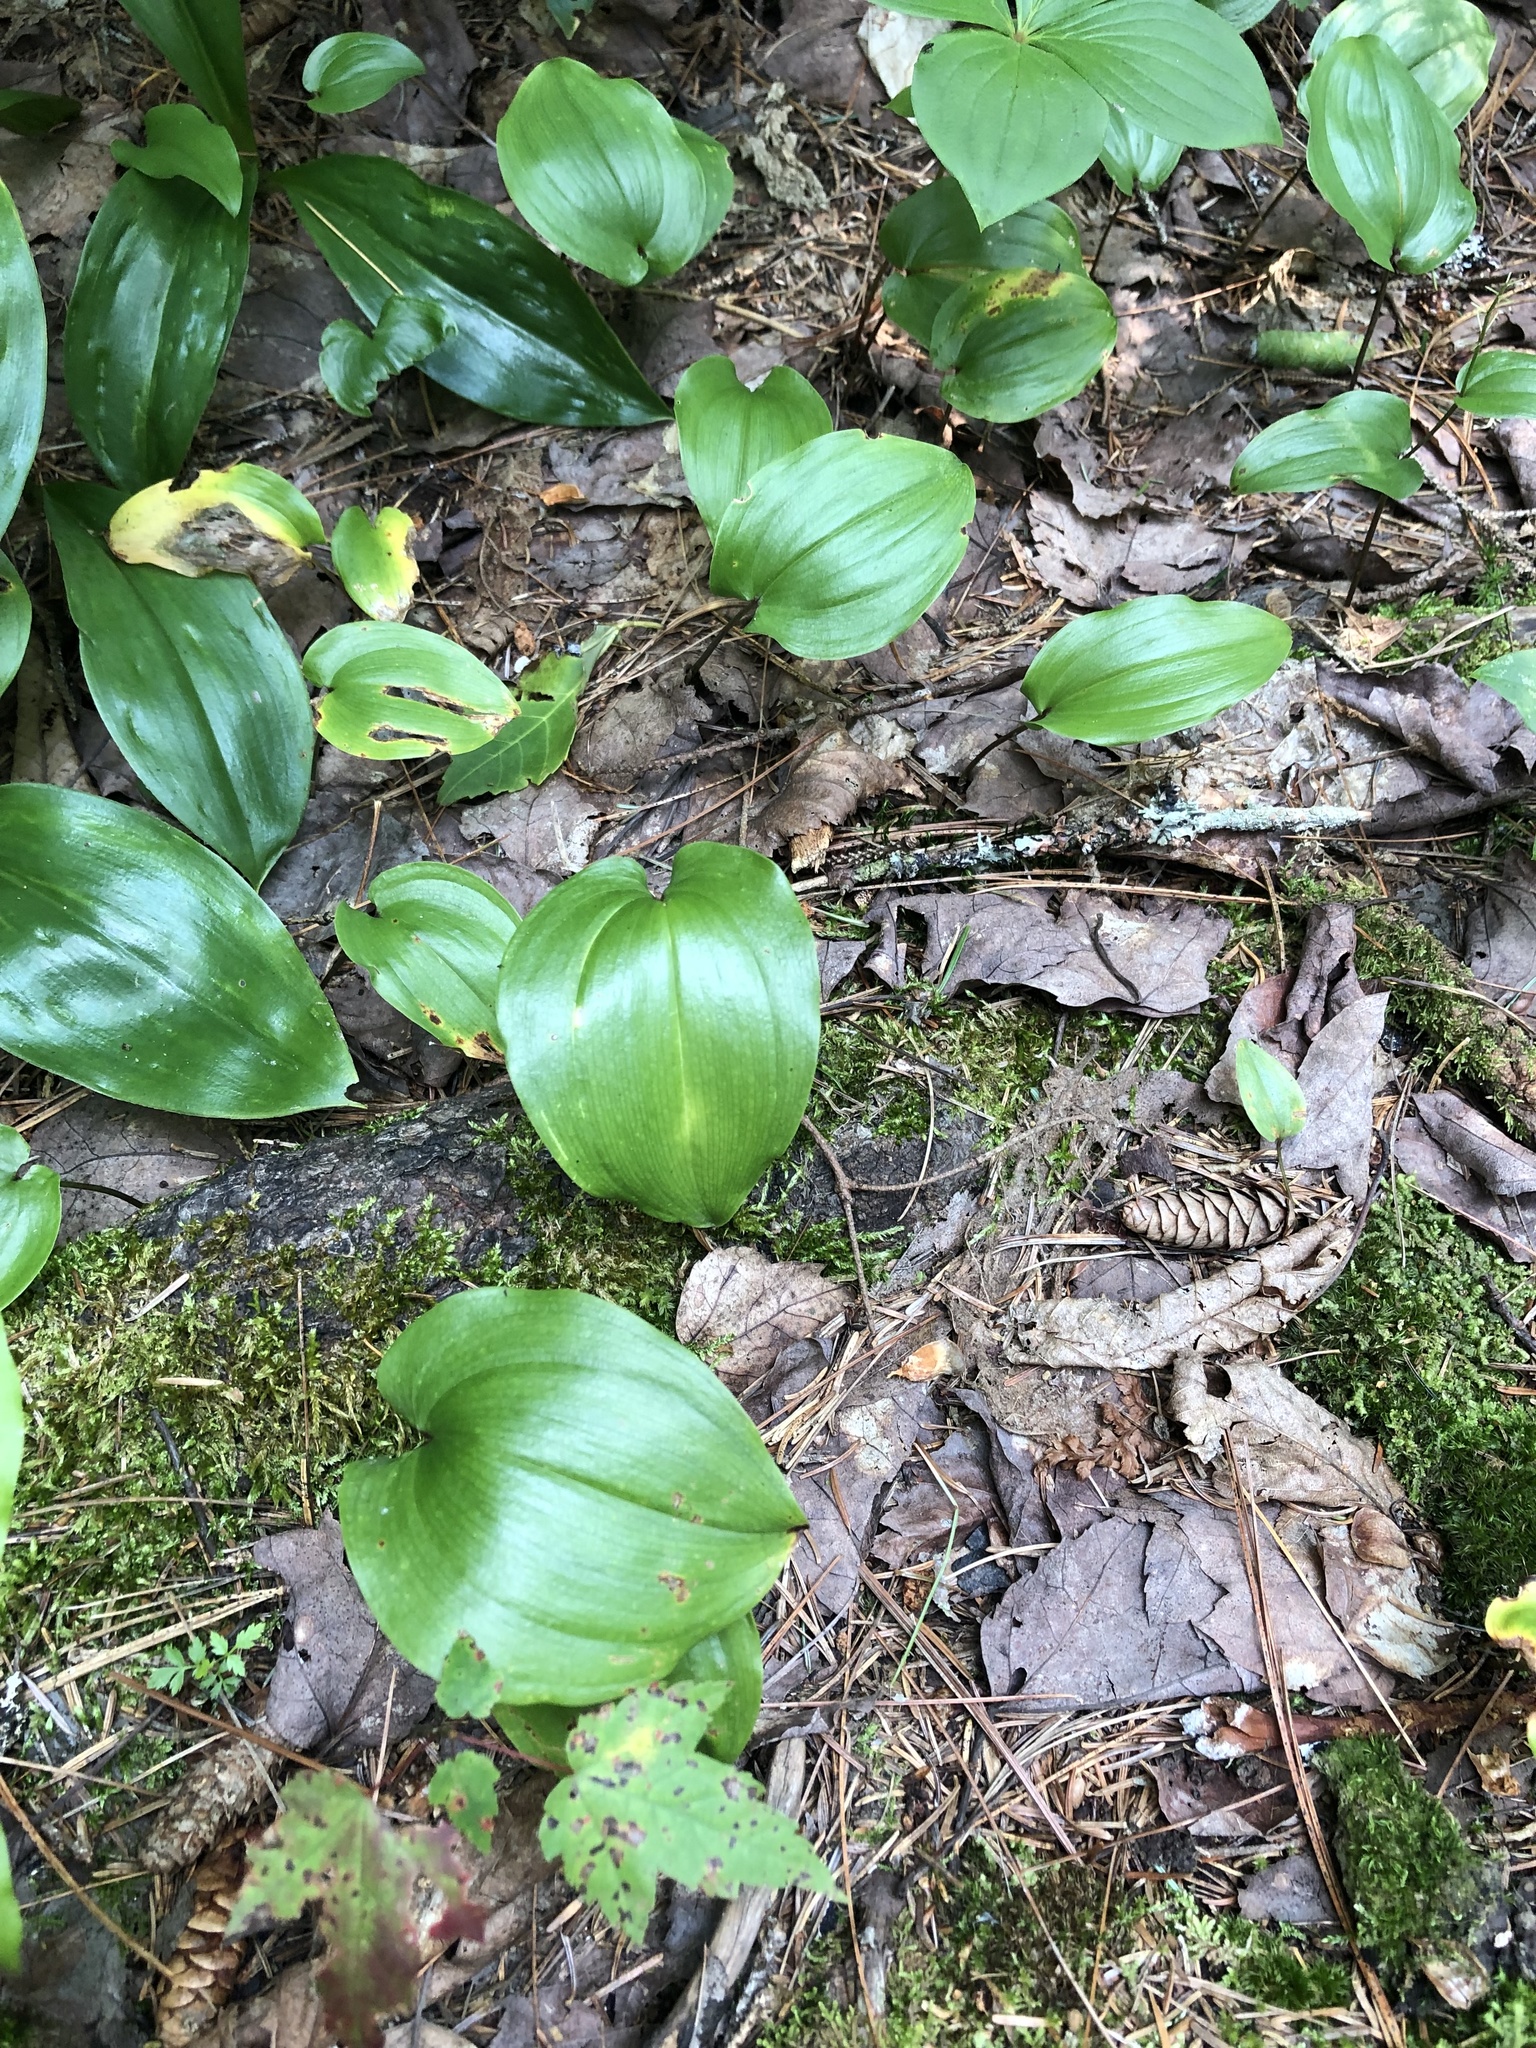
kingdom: Plantae
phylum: Tracheophyta
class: Liliopsida
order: Asparagales
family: Asparagaceae
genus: Maianthemum
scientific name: Maianthemum canadense
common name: False lily-of-the-valley
